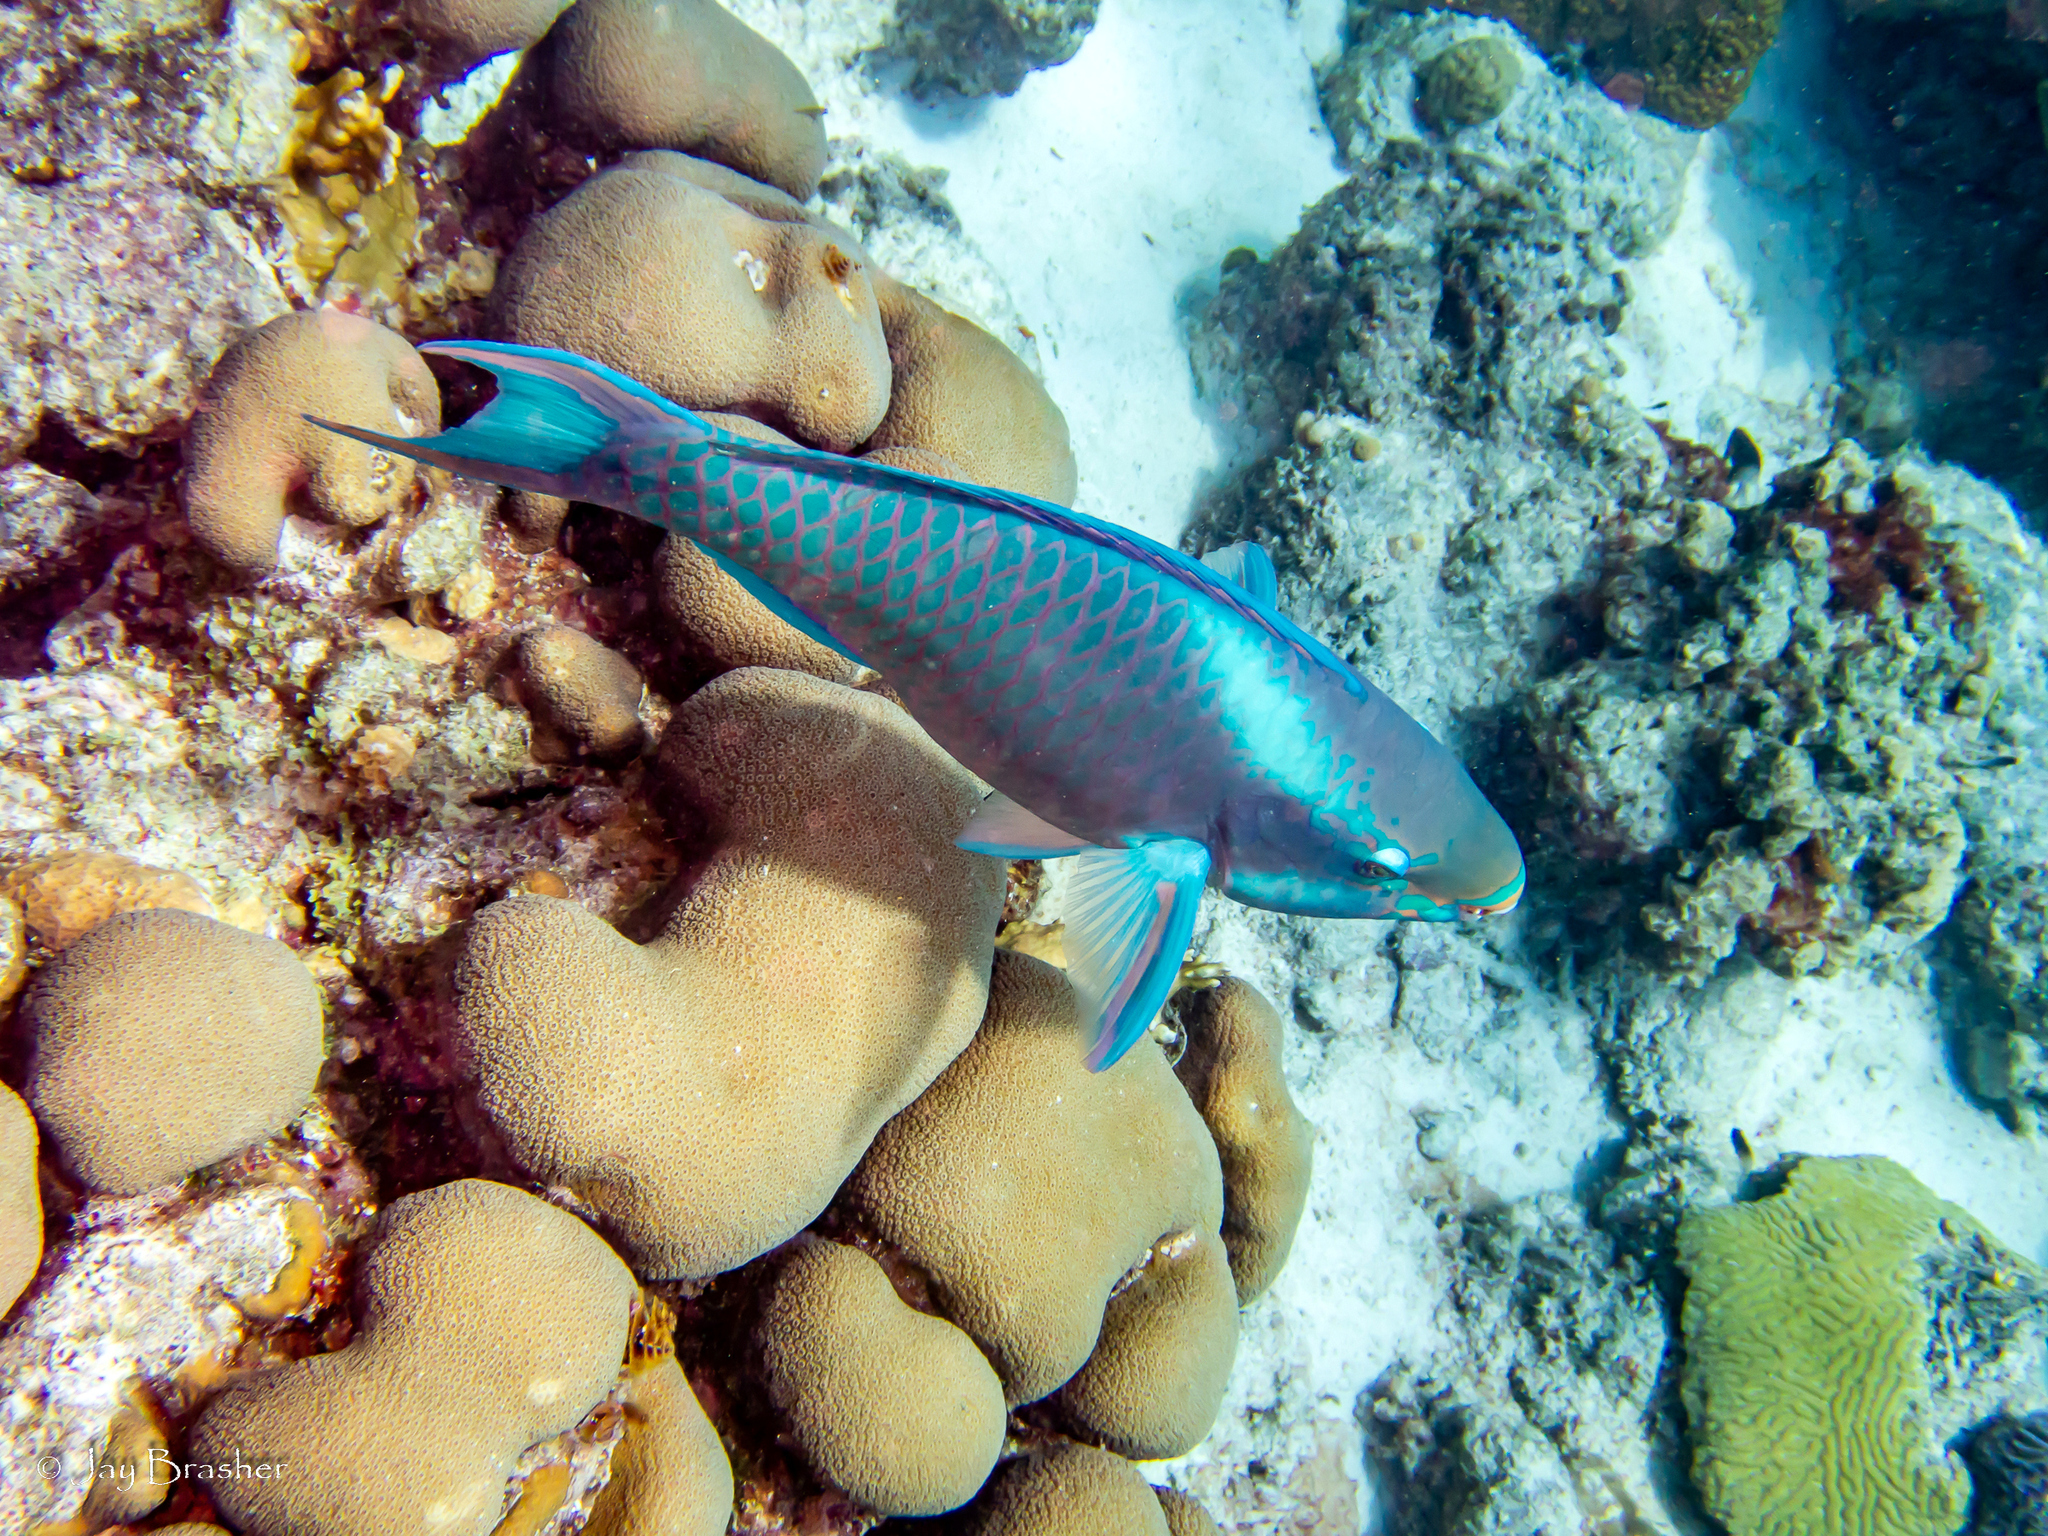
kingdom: Animalia
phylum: Chordata
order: Perciformes
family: Scaridae
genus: Scarus
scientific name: Scarus vetula
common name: Queen parrotfish
